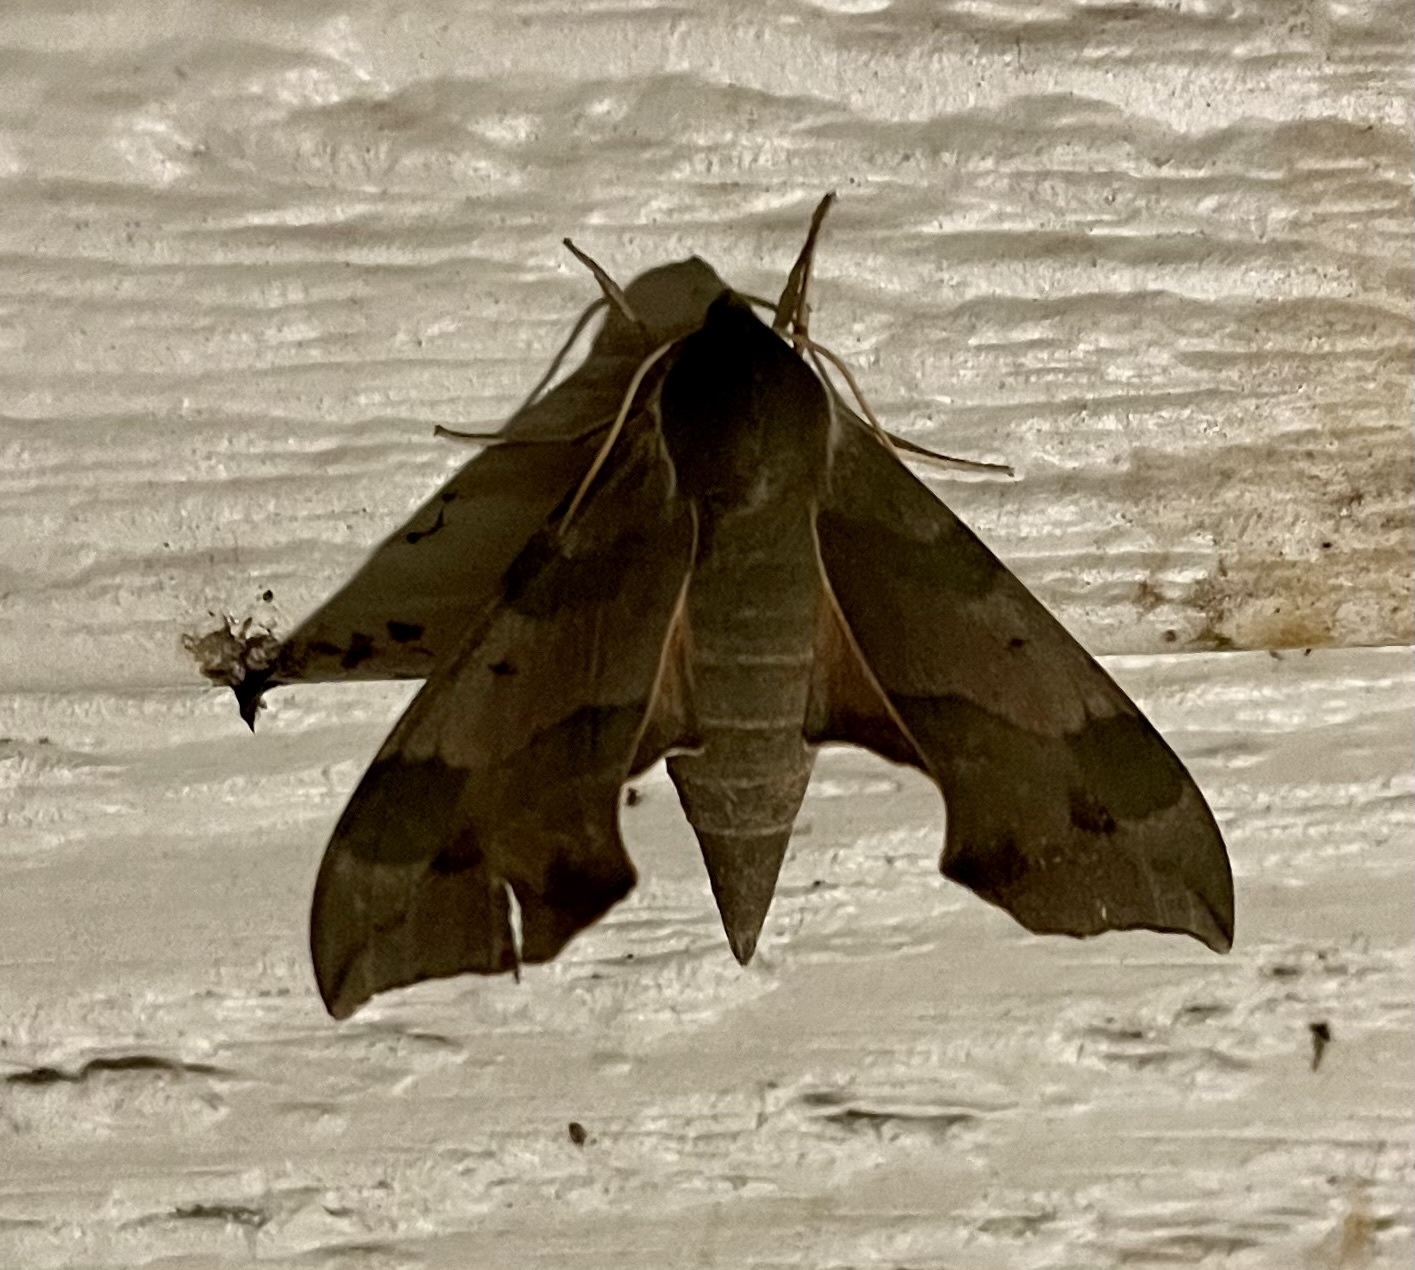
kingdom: Animalia
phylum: Arthropoda
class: Insecta
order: Lepidoptera
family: Sphingidae
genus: Darapsa
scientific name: Darapsa myron
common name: Hog sphinx
